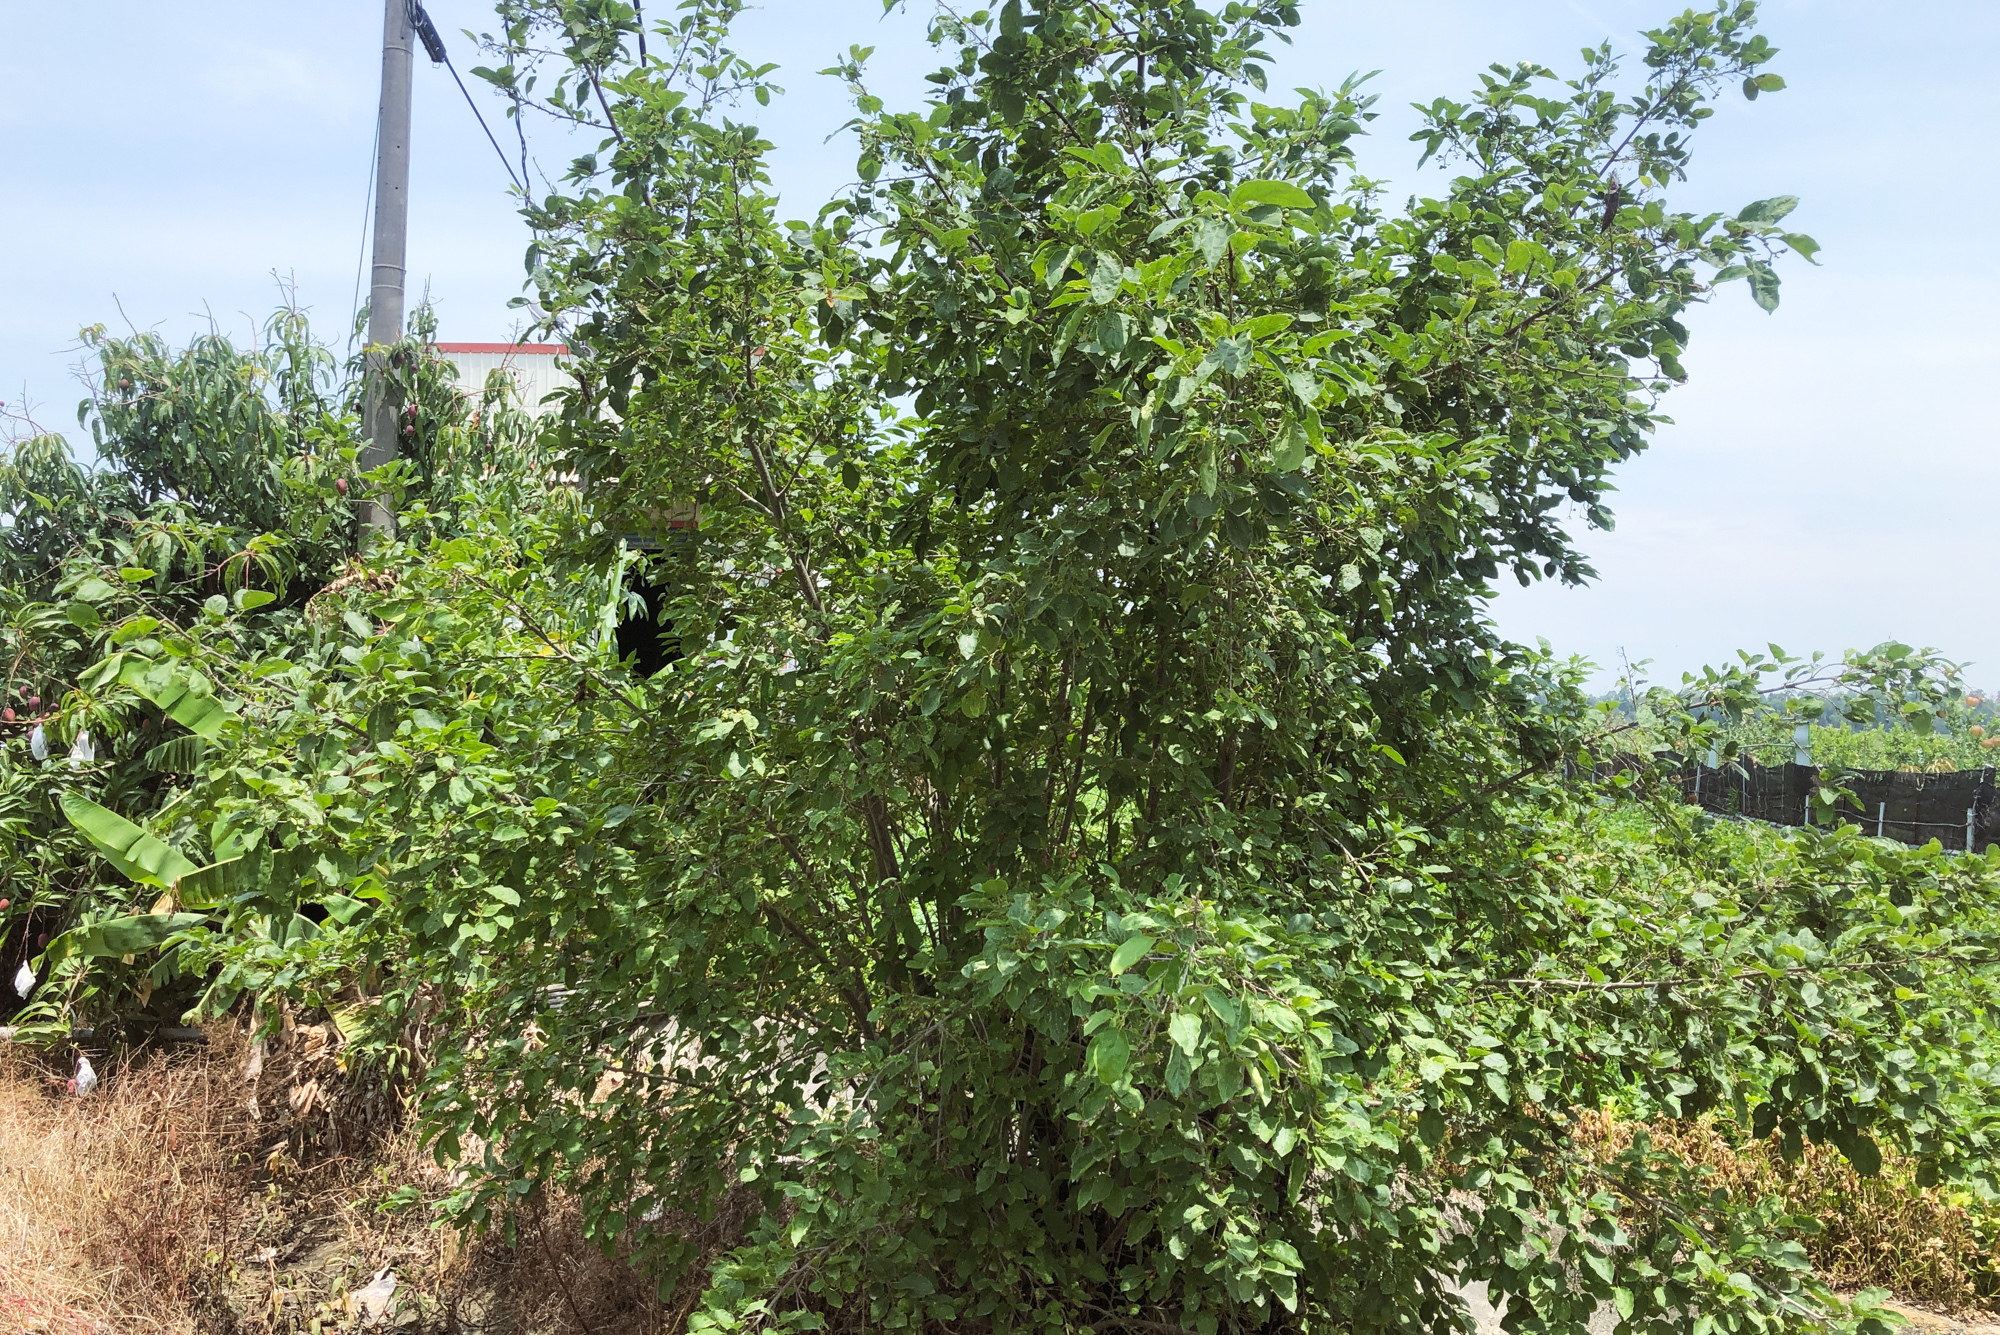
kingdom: Plantae
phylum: Tracheophyta
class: Magnoliopsida
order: Boraginales
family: Cordiaceae
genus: Cordia
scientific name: Cordia dichotoma
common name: Fragrant manjack
